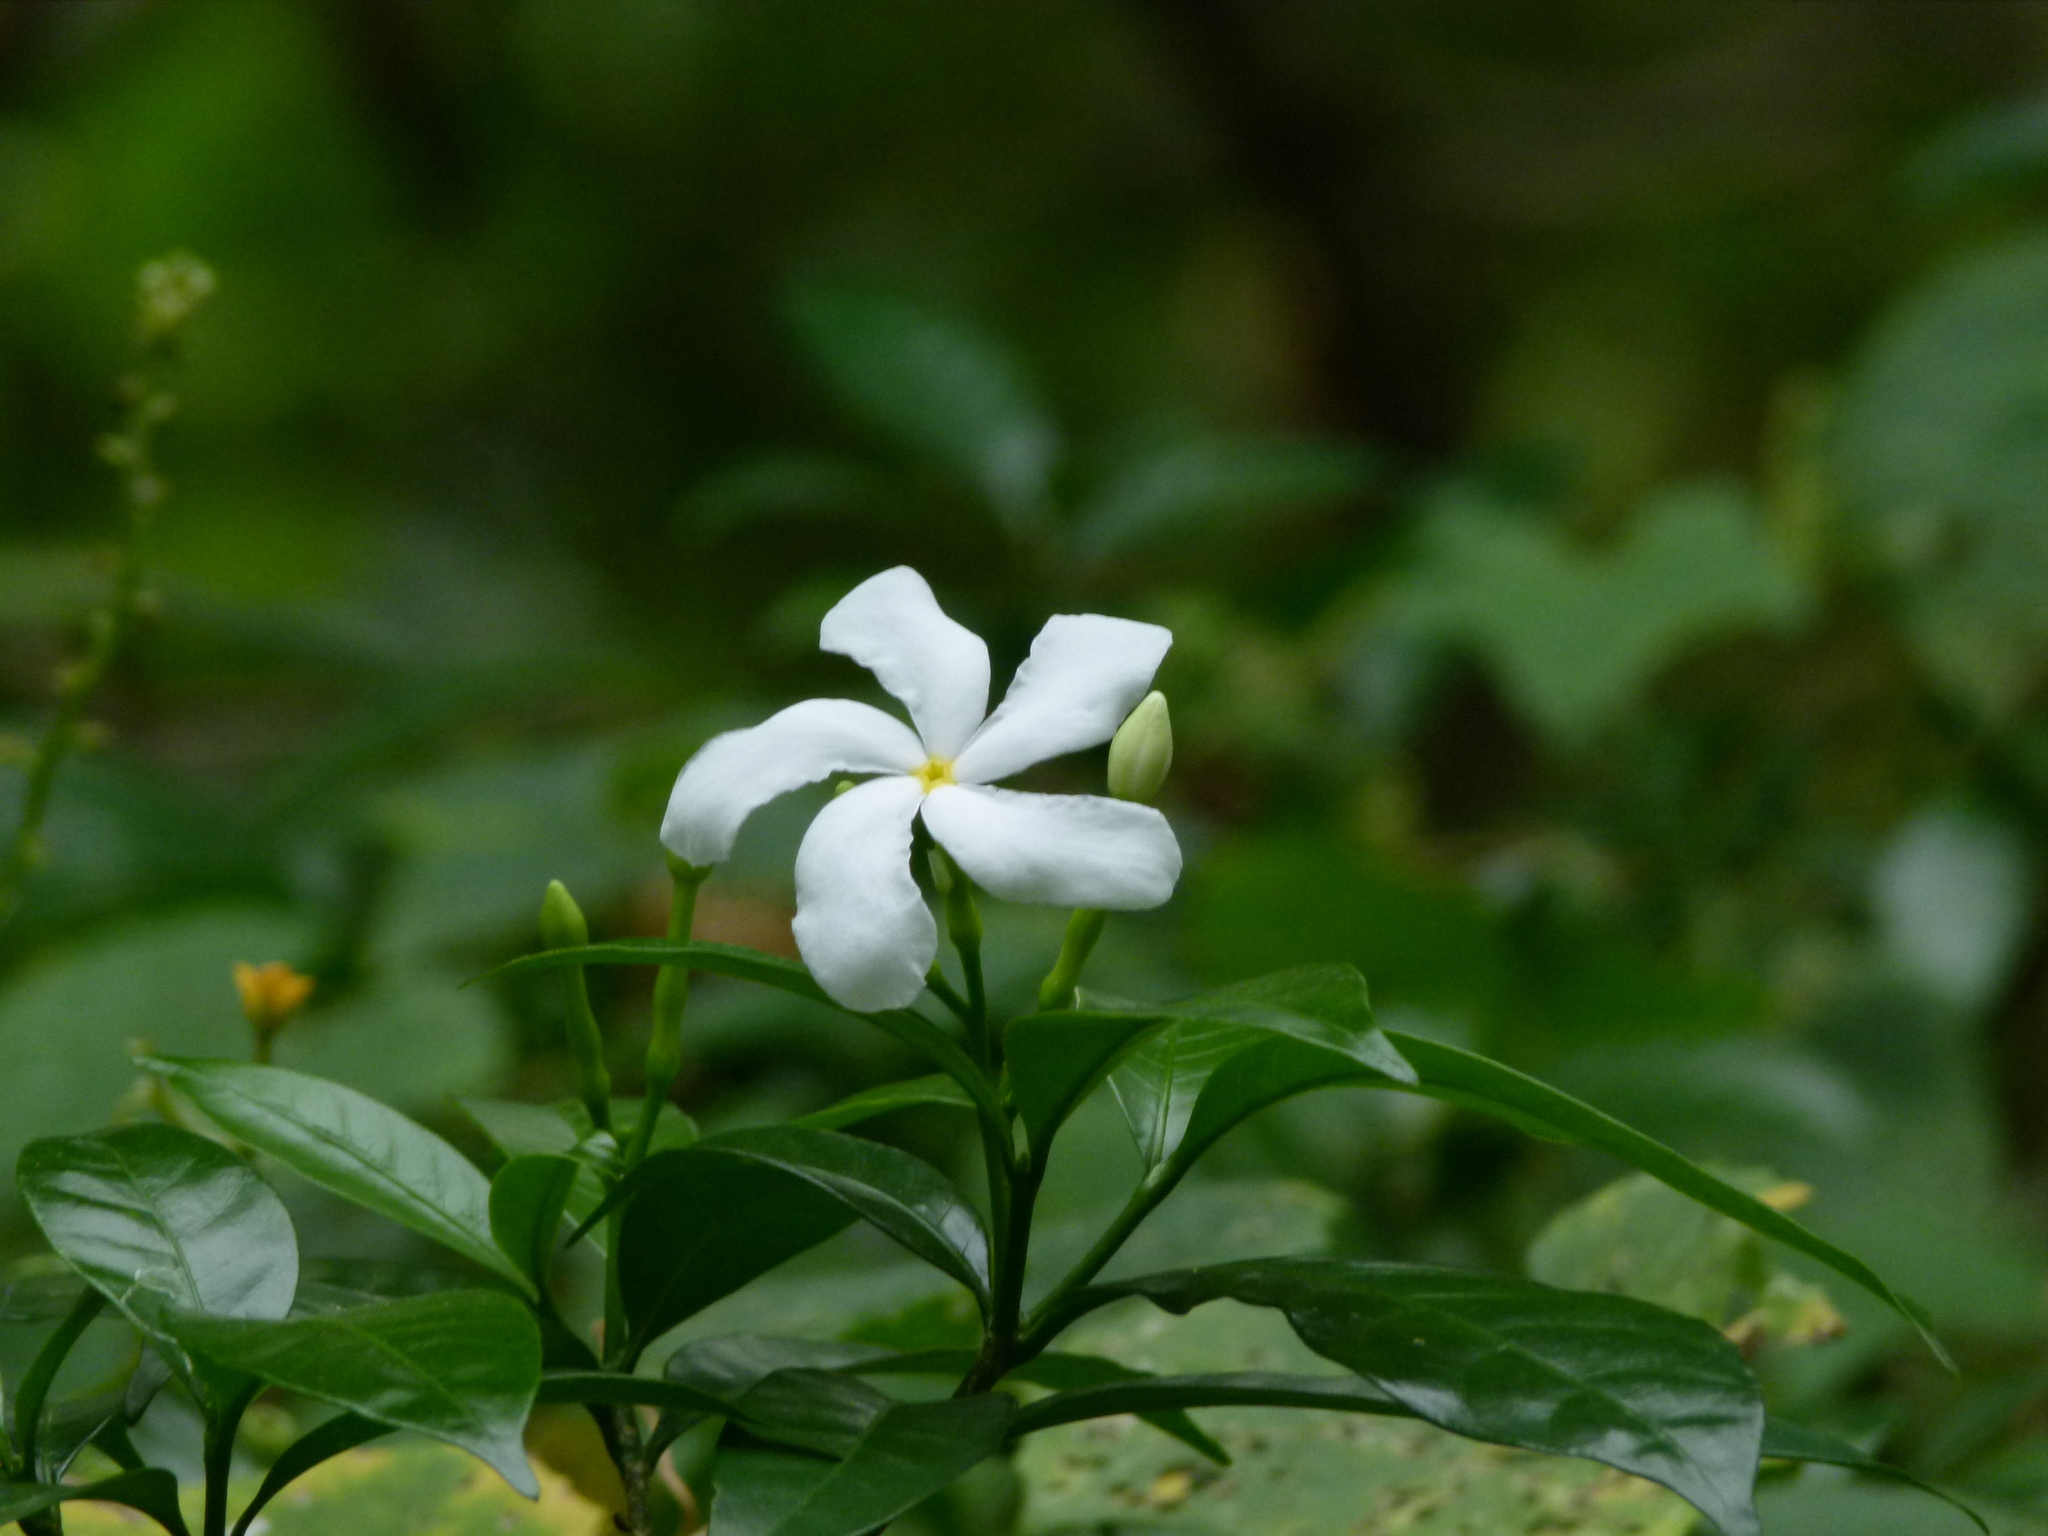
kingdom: Plantae
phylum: Tracheophyta
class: Magnoliopsida
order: Gentianales
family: Apocynaceae
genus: Tabernaemontana
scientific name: Tabernaemontana divaricata
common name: Pinwheelflower
